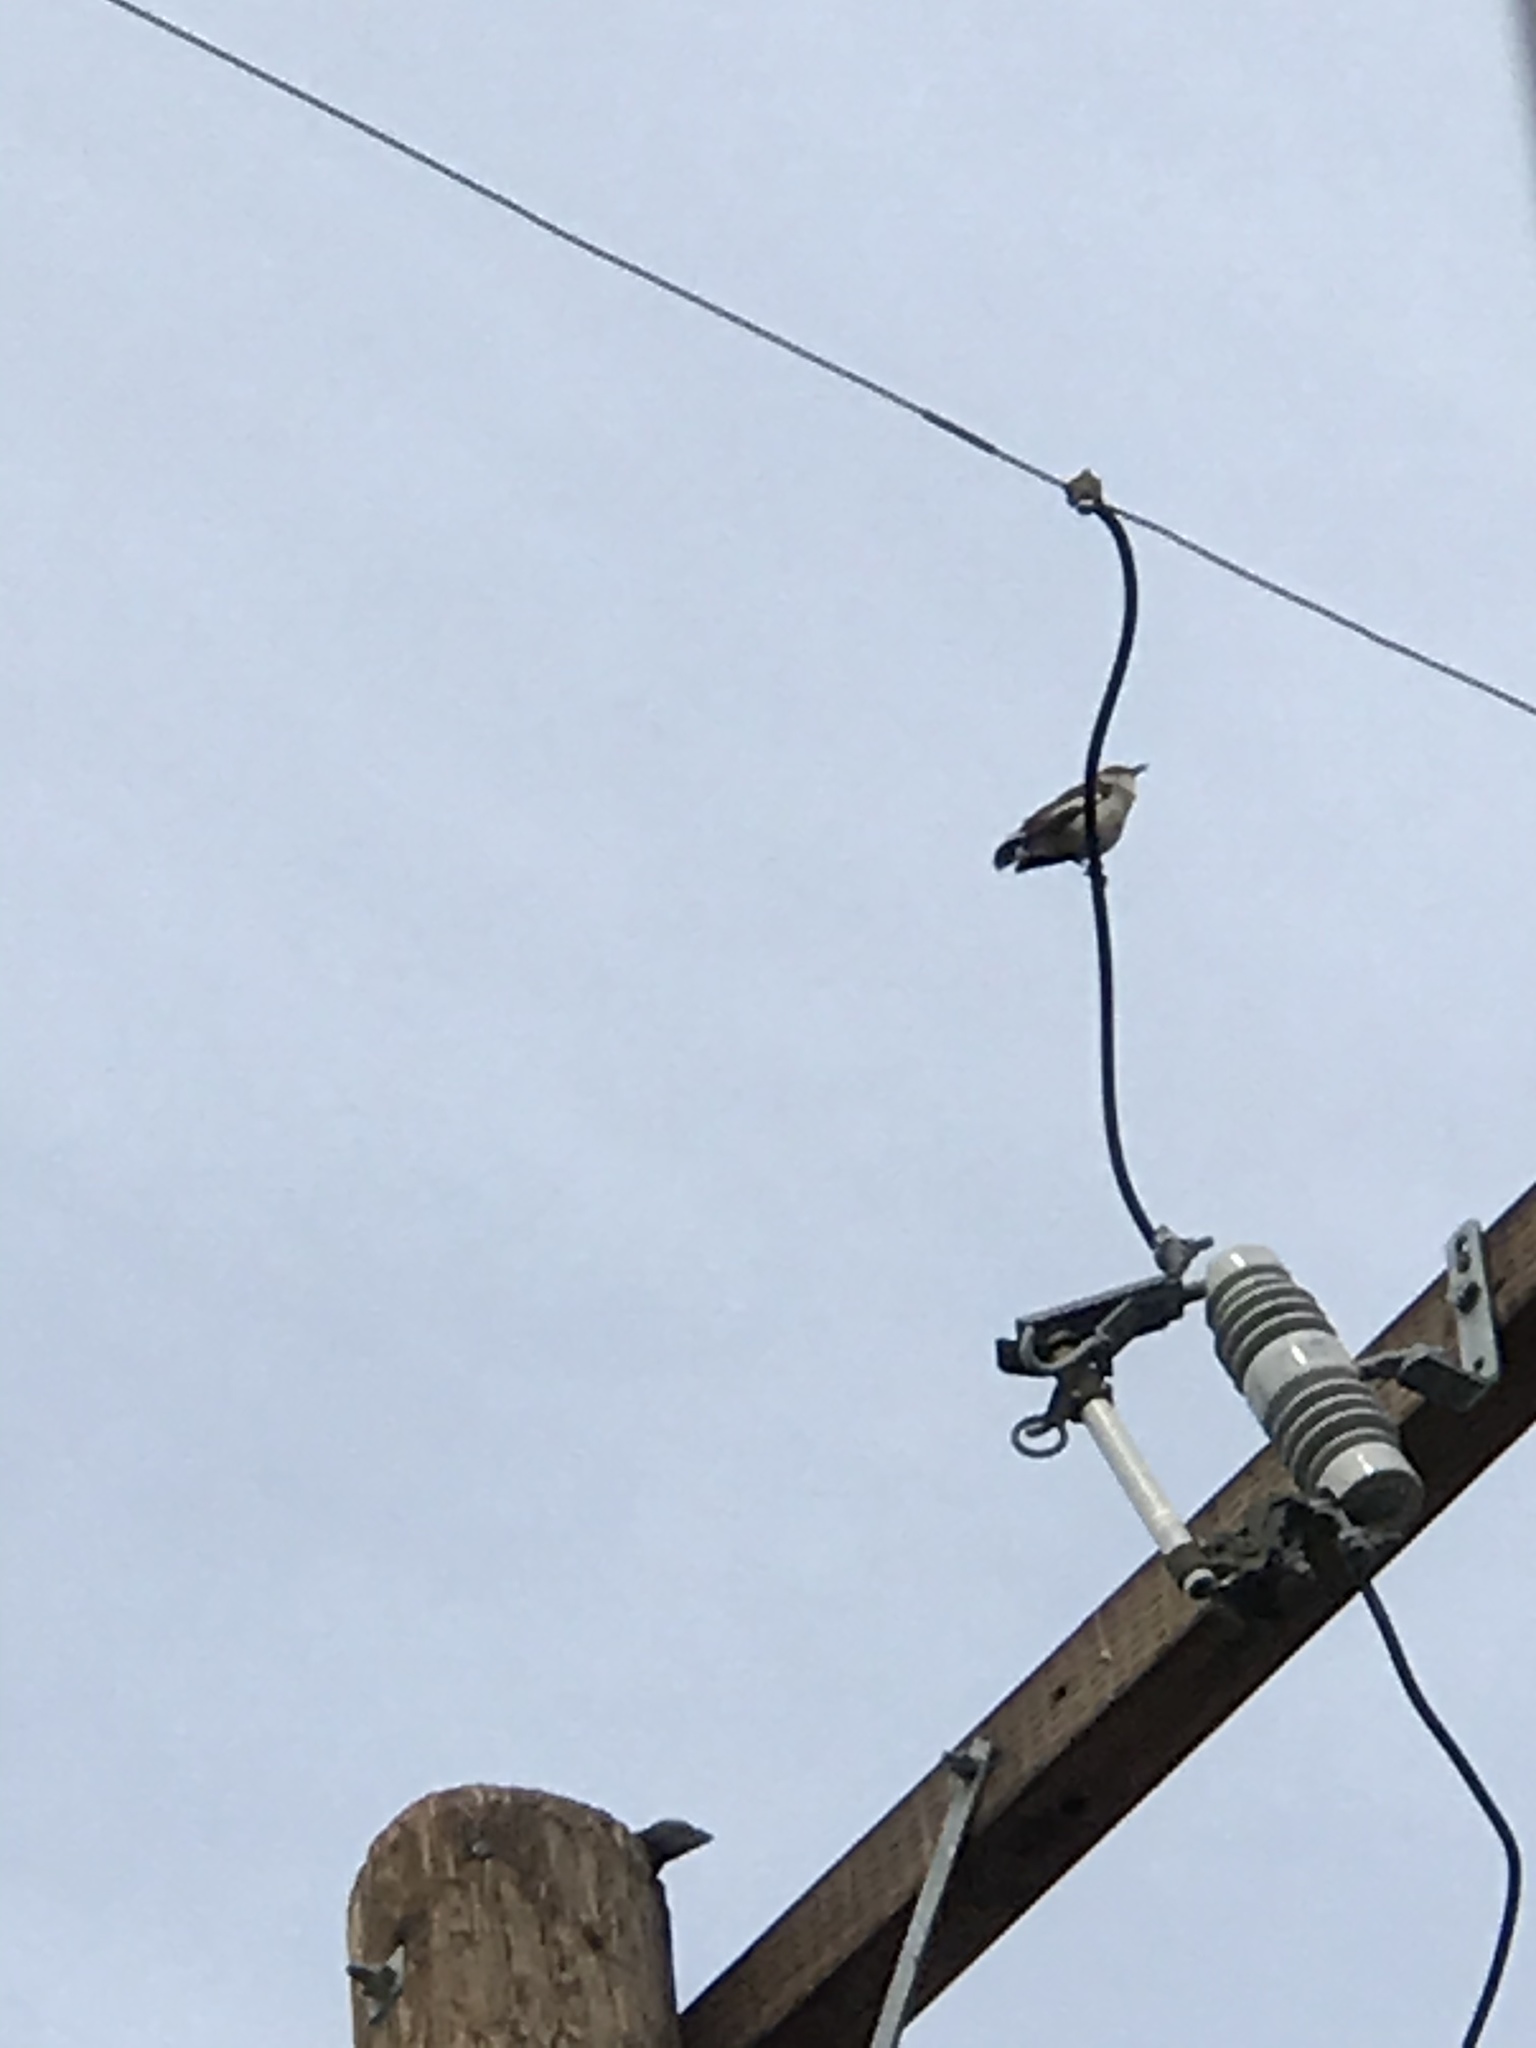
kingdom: Animalia
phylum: Chordata
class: Aves
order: Passeriformes
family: Mimidae
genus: Mimus
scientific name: Mimus polyglottos
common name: Northern mockingbird
